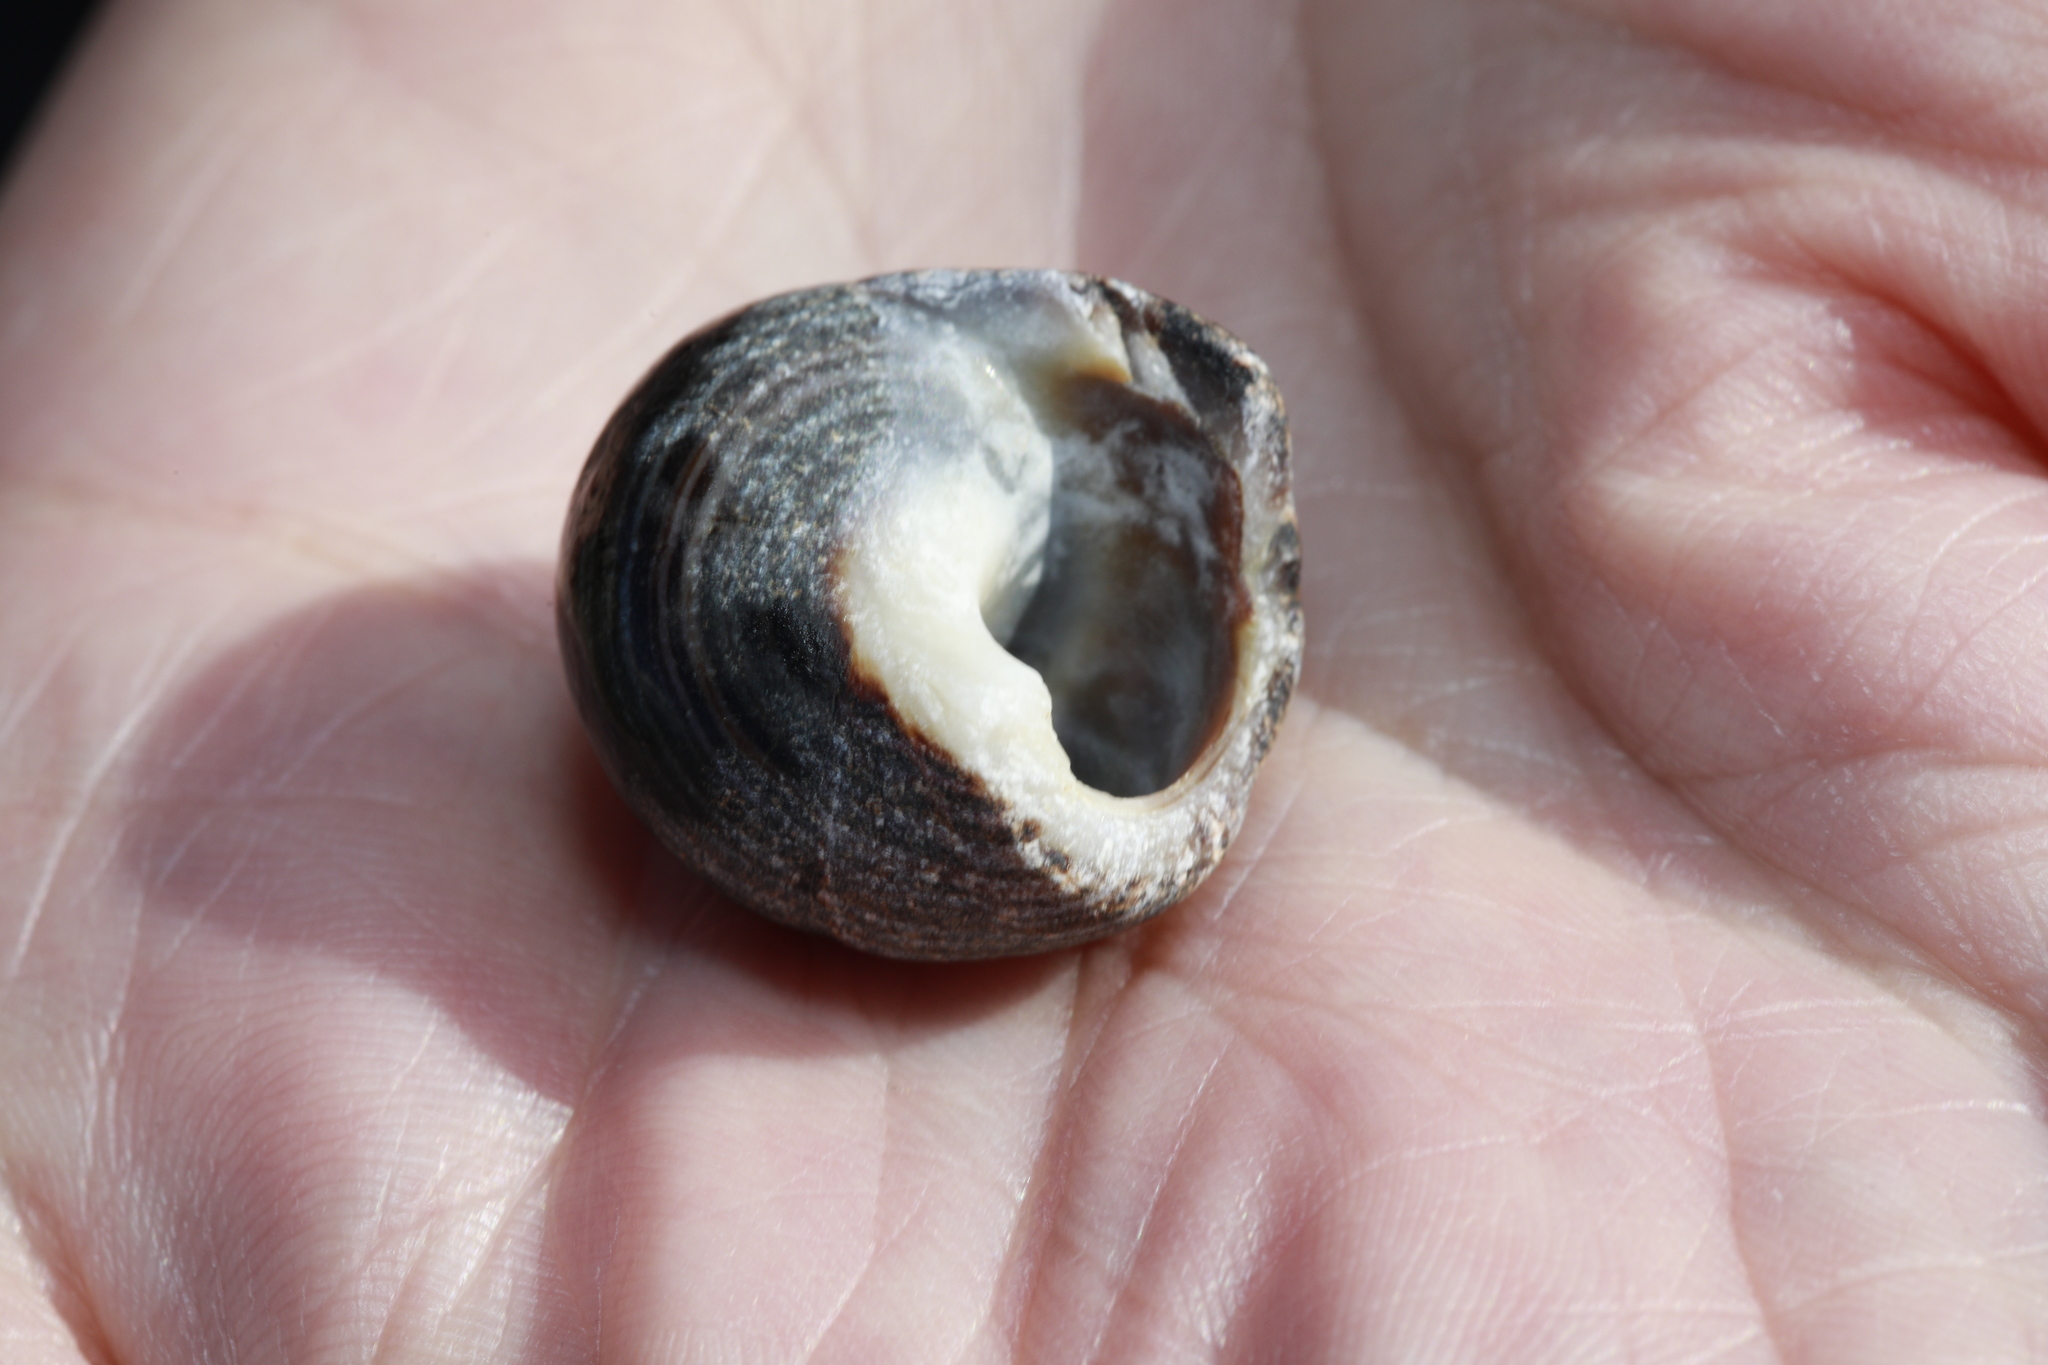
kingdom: Animalia
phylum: Mollusca
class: Gastropoda
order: Littorinimorpha
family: Littorinidae
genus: Littorina
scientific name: Littorina littorea
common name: Common periwinkle
